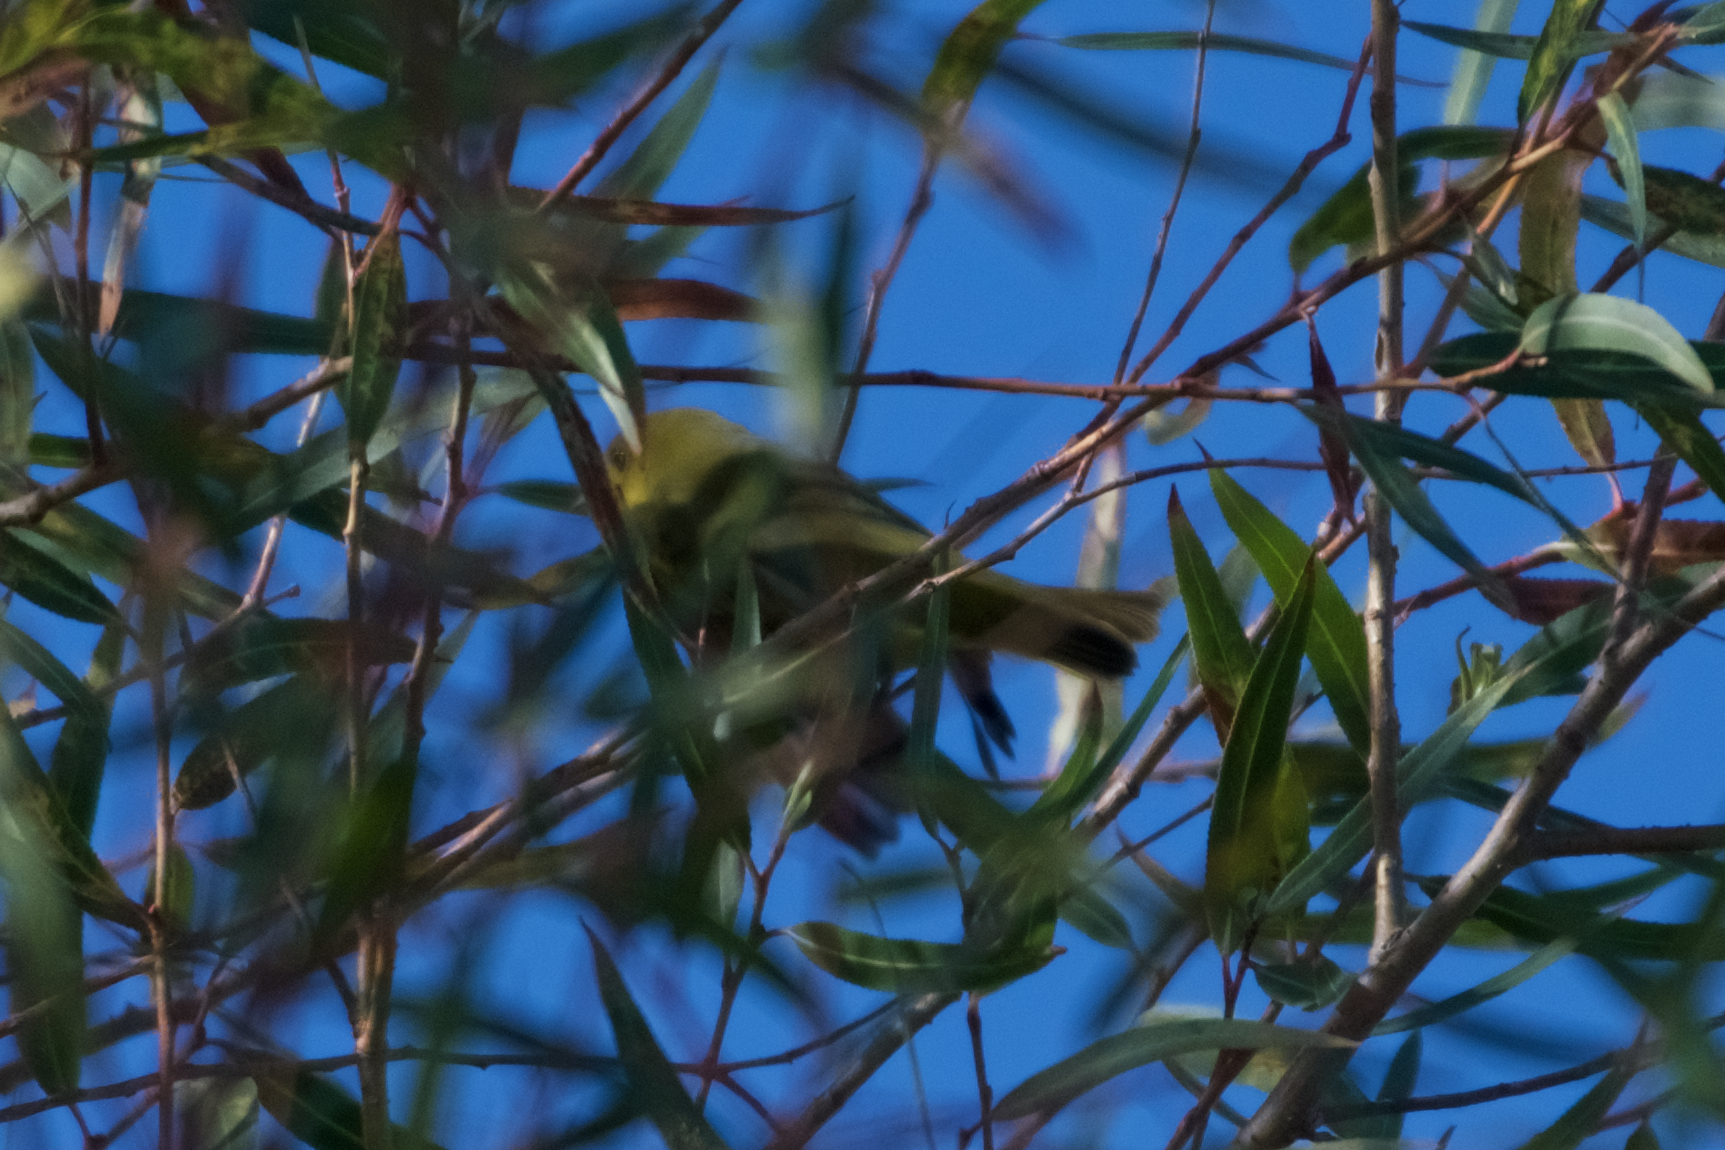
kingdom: Animalia
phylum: Chordata
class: Aves
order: Passeriformes
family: Parulidae
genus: Setophaga
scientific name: Setophaga petechia
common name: Yellow warbler
